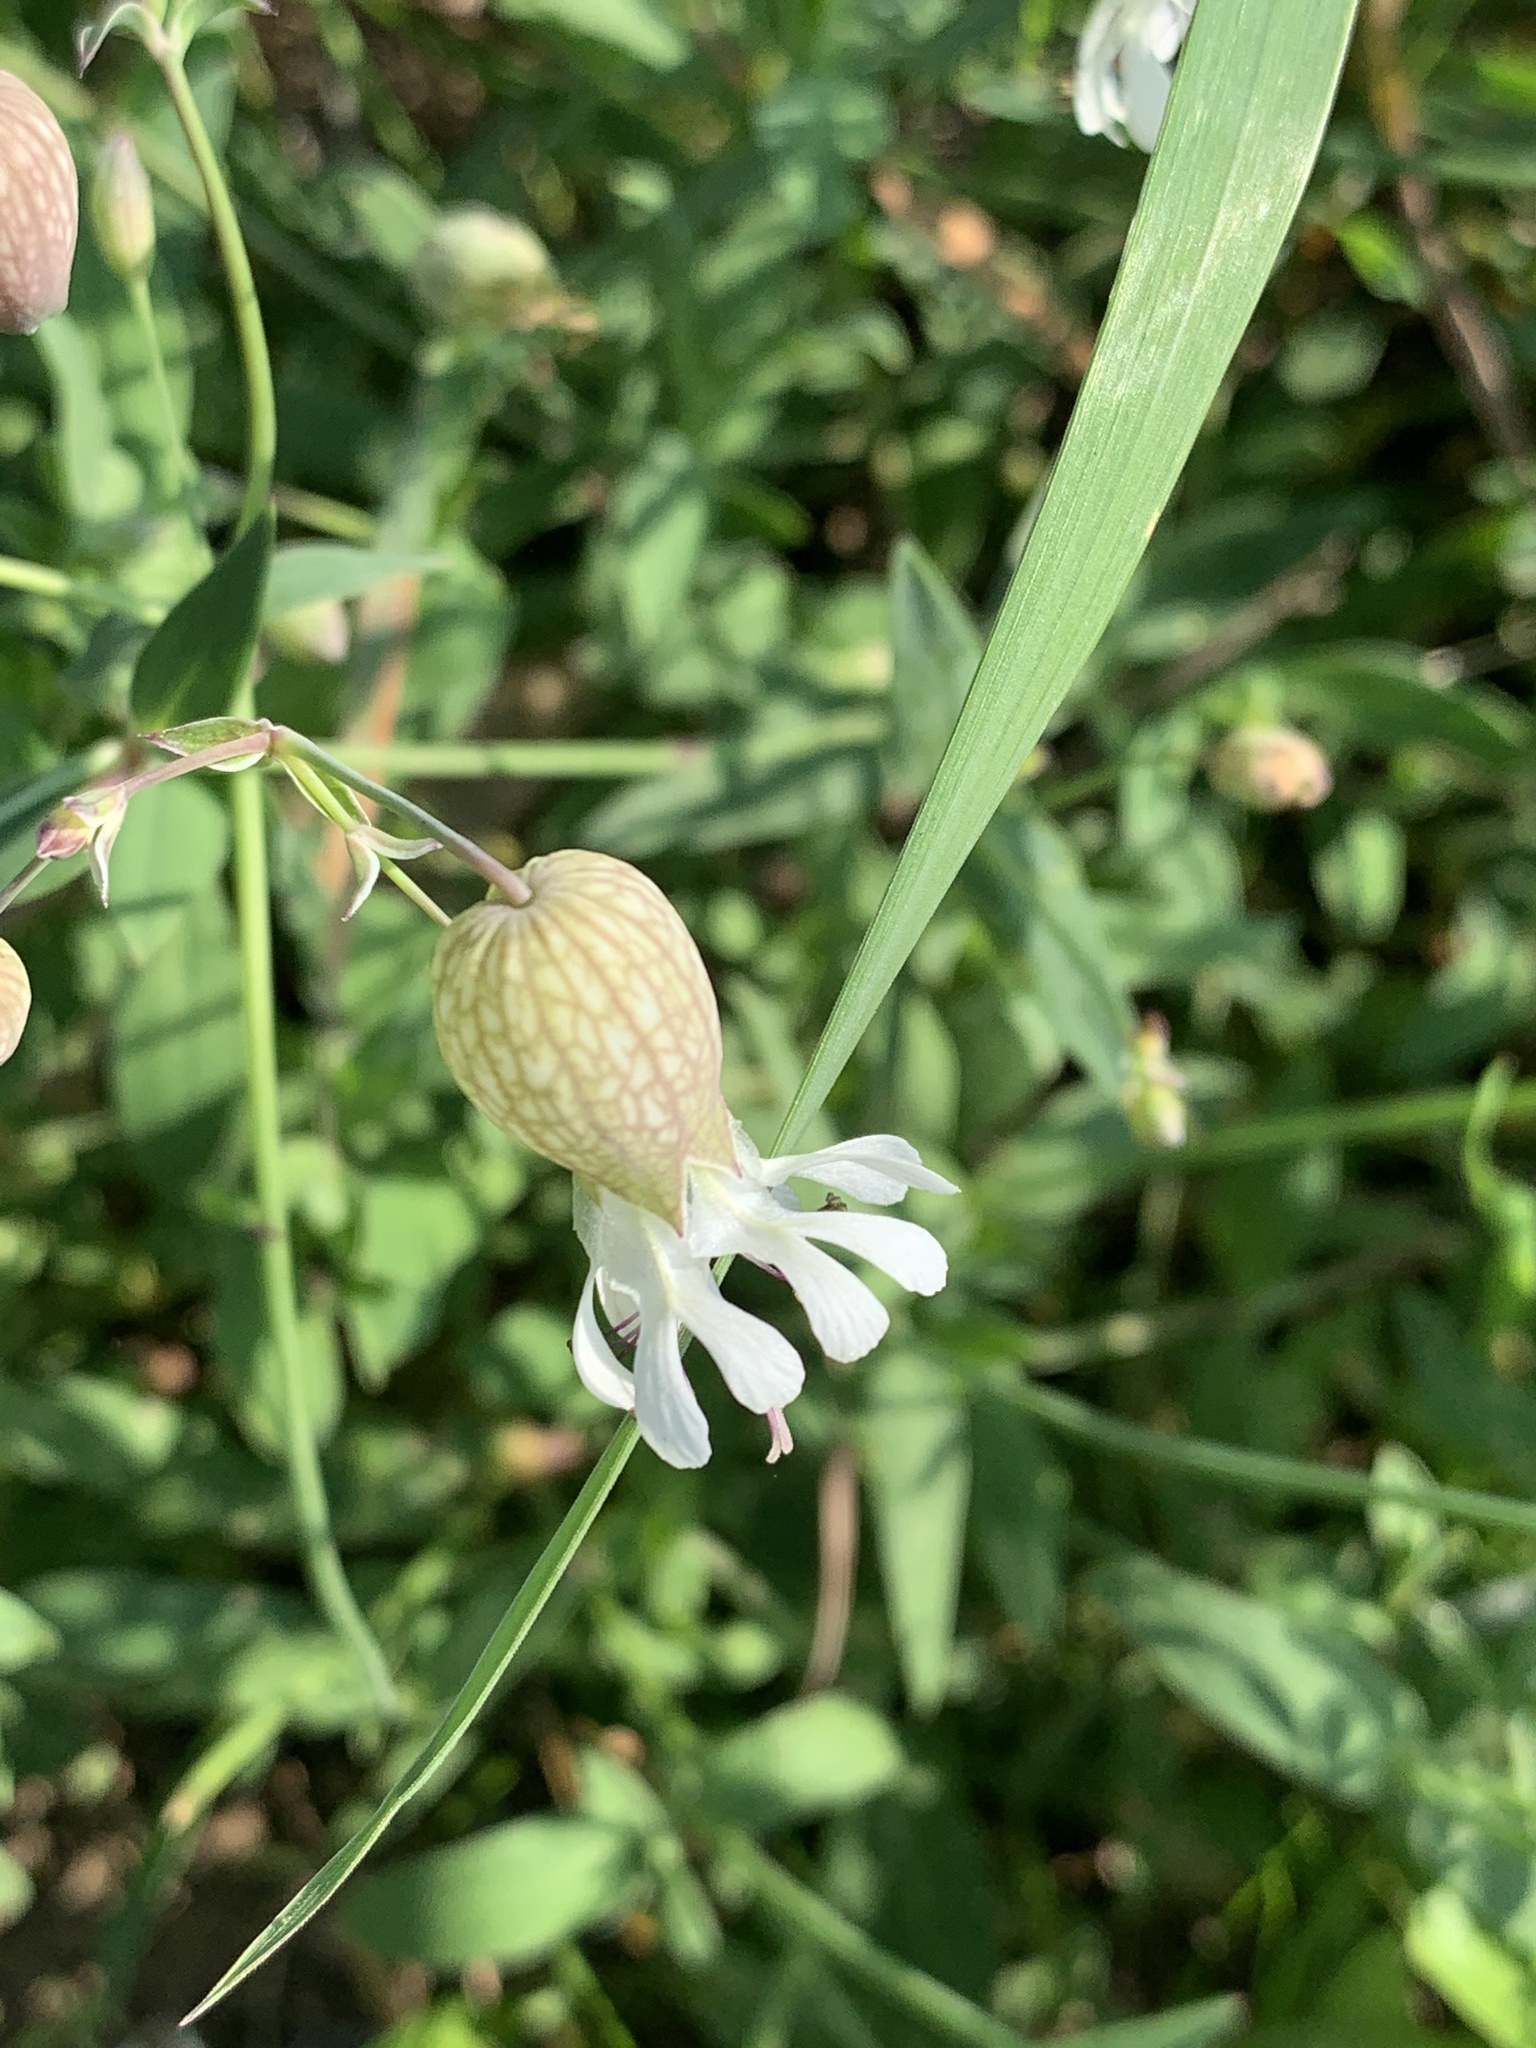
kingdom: Plantae
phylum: Tracheophyta
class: Magnoliopsida
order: Caryophyllales
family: Caryophyllaceae
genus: Silene
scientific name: Silene vulgaris
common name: Bladder campion
